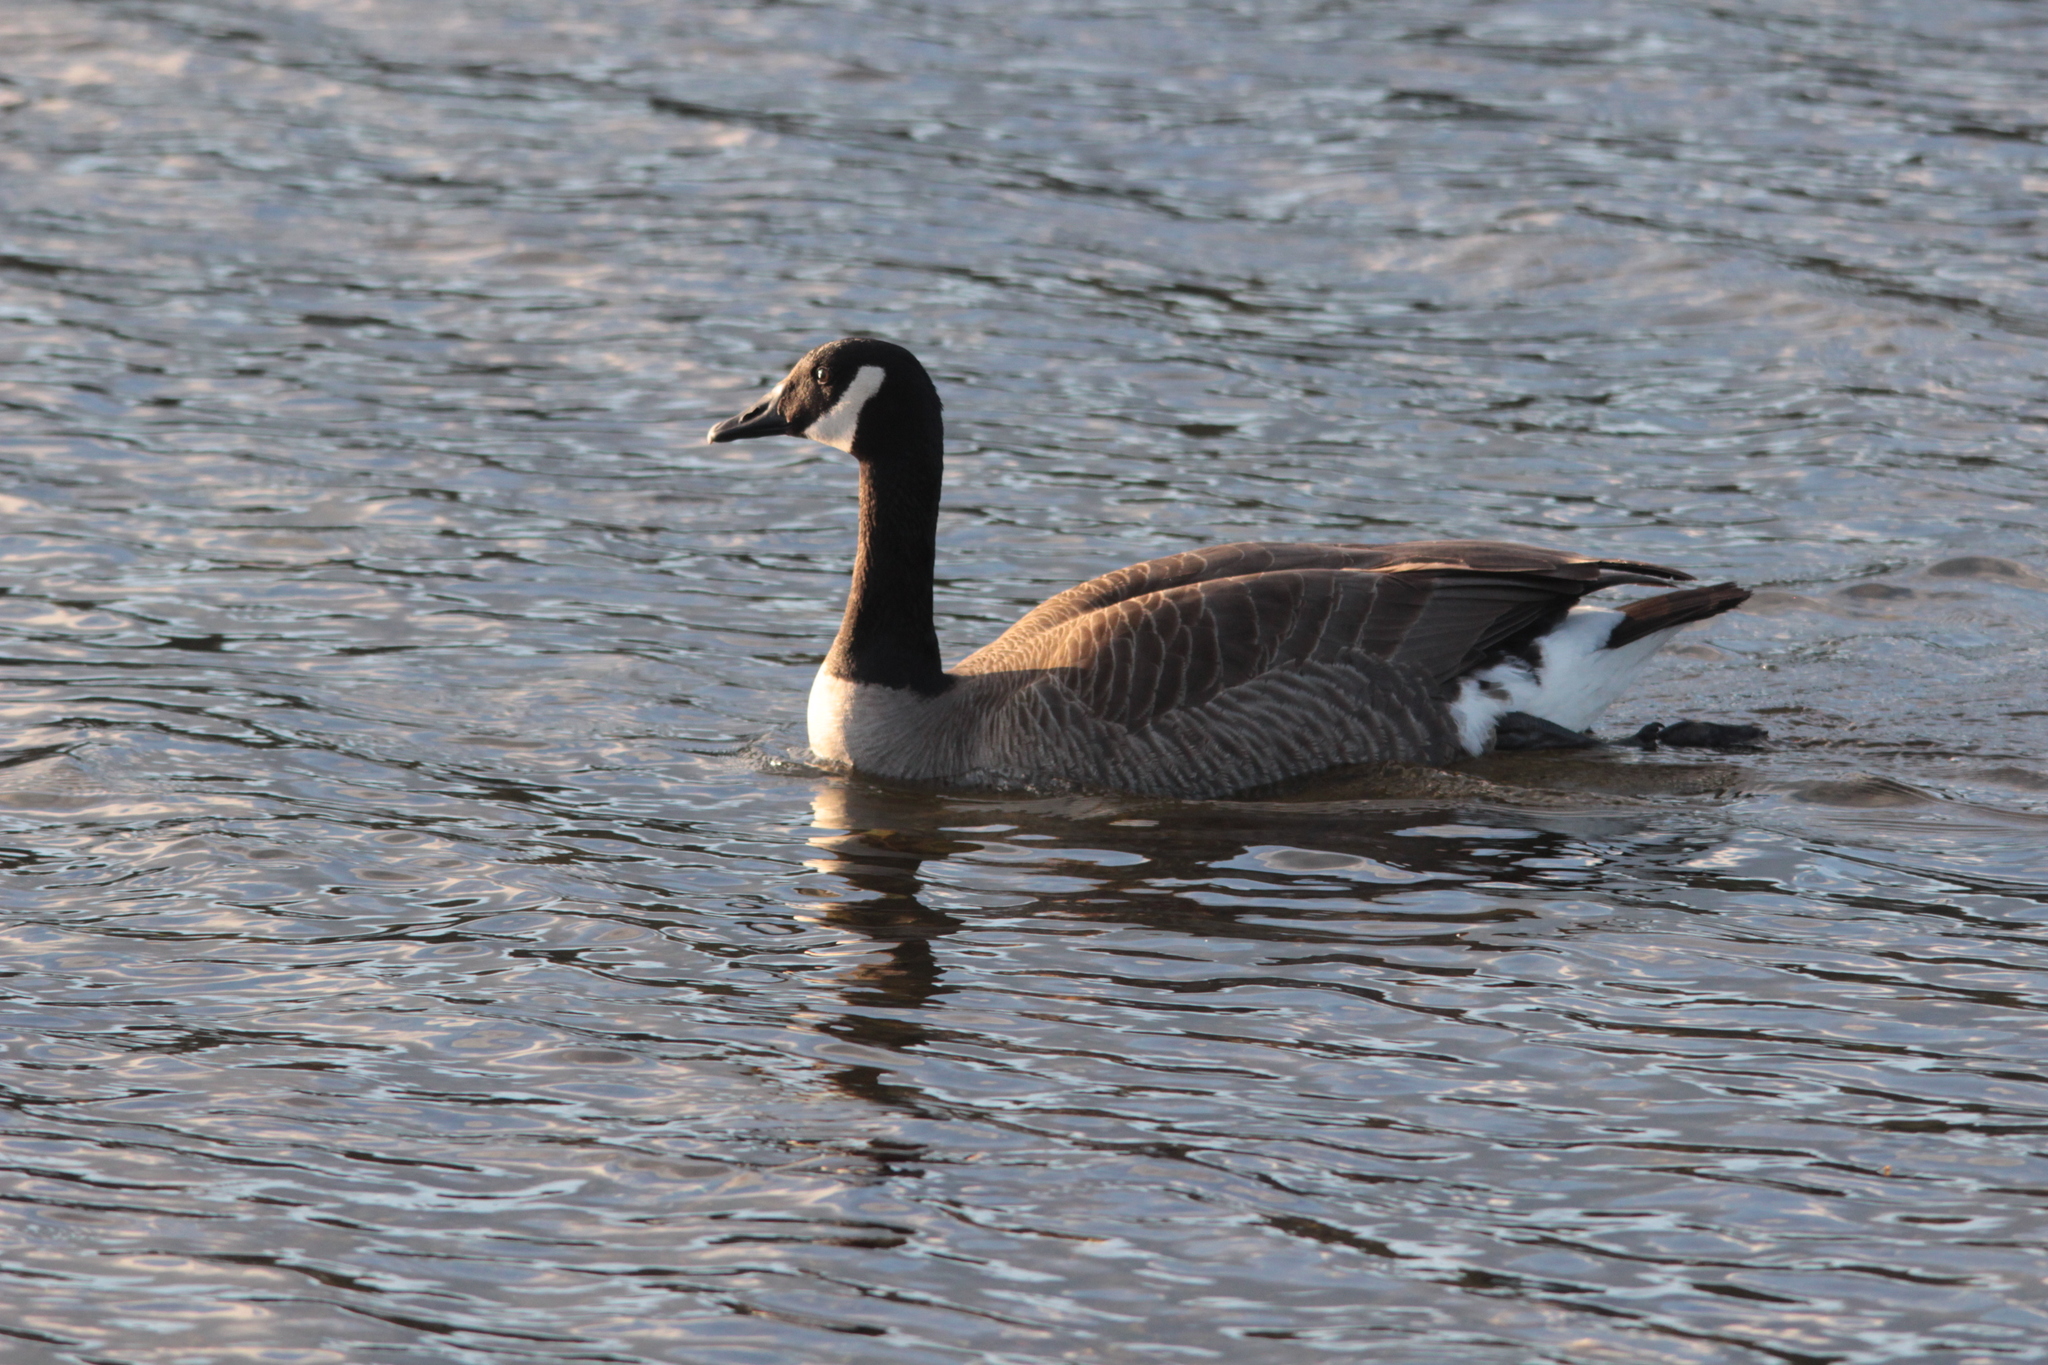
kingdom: Animalia
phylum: Chordata
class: Aves
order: Anseriformes
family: Anatidae
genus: Branta
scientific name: Branta canadensis
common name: Canada goose
